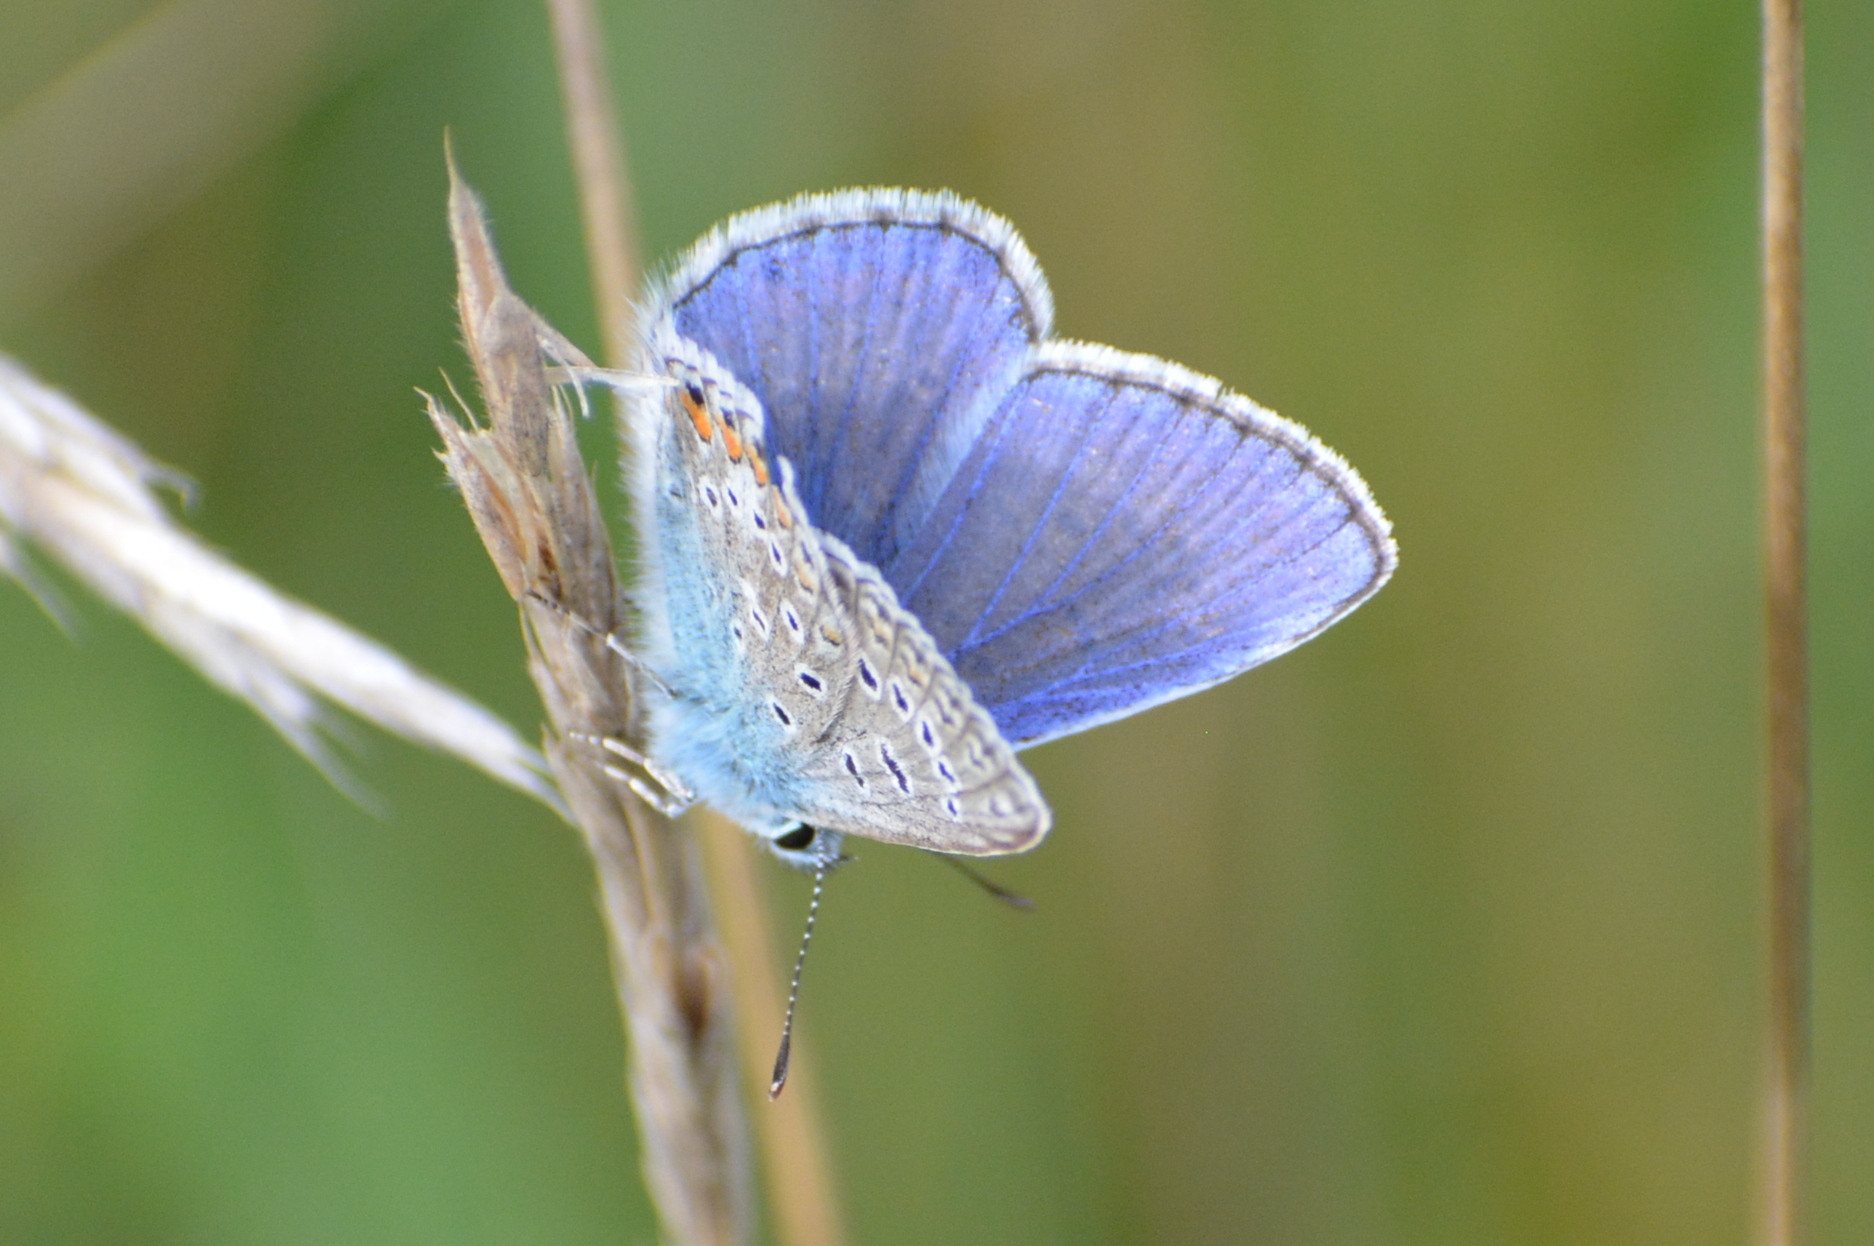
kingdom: Animalia
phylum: Arthropoda
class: Insecta
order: Lepidoptera
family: Lycaenidae
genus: Polyommatus
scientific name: Polyommatus icarus
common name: Common blue
